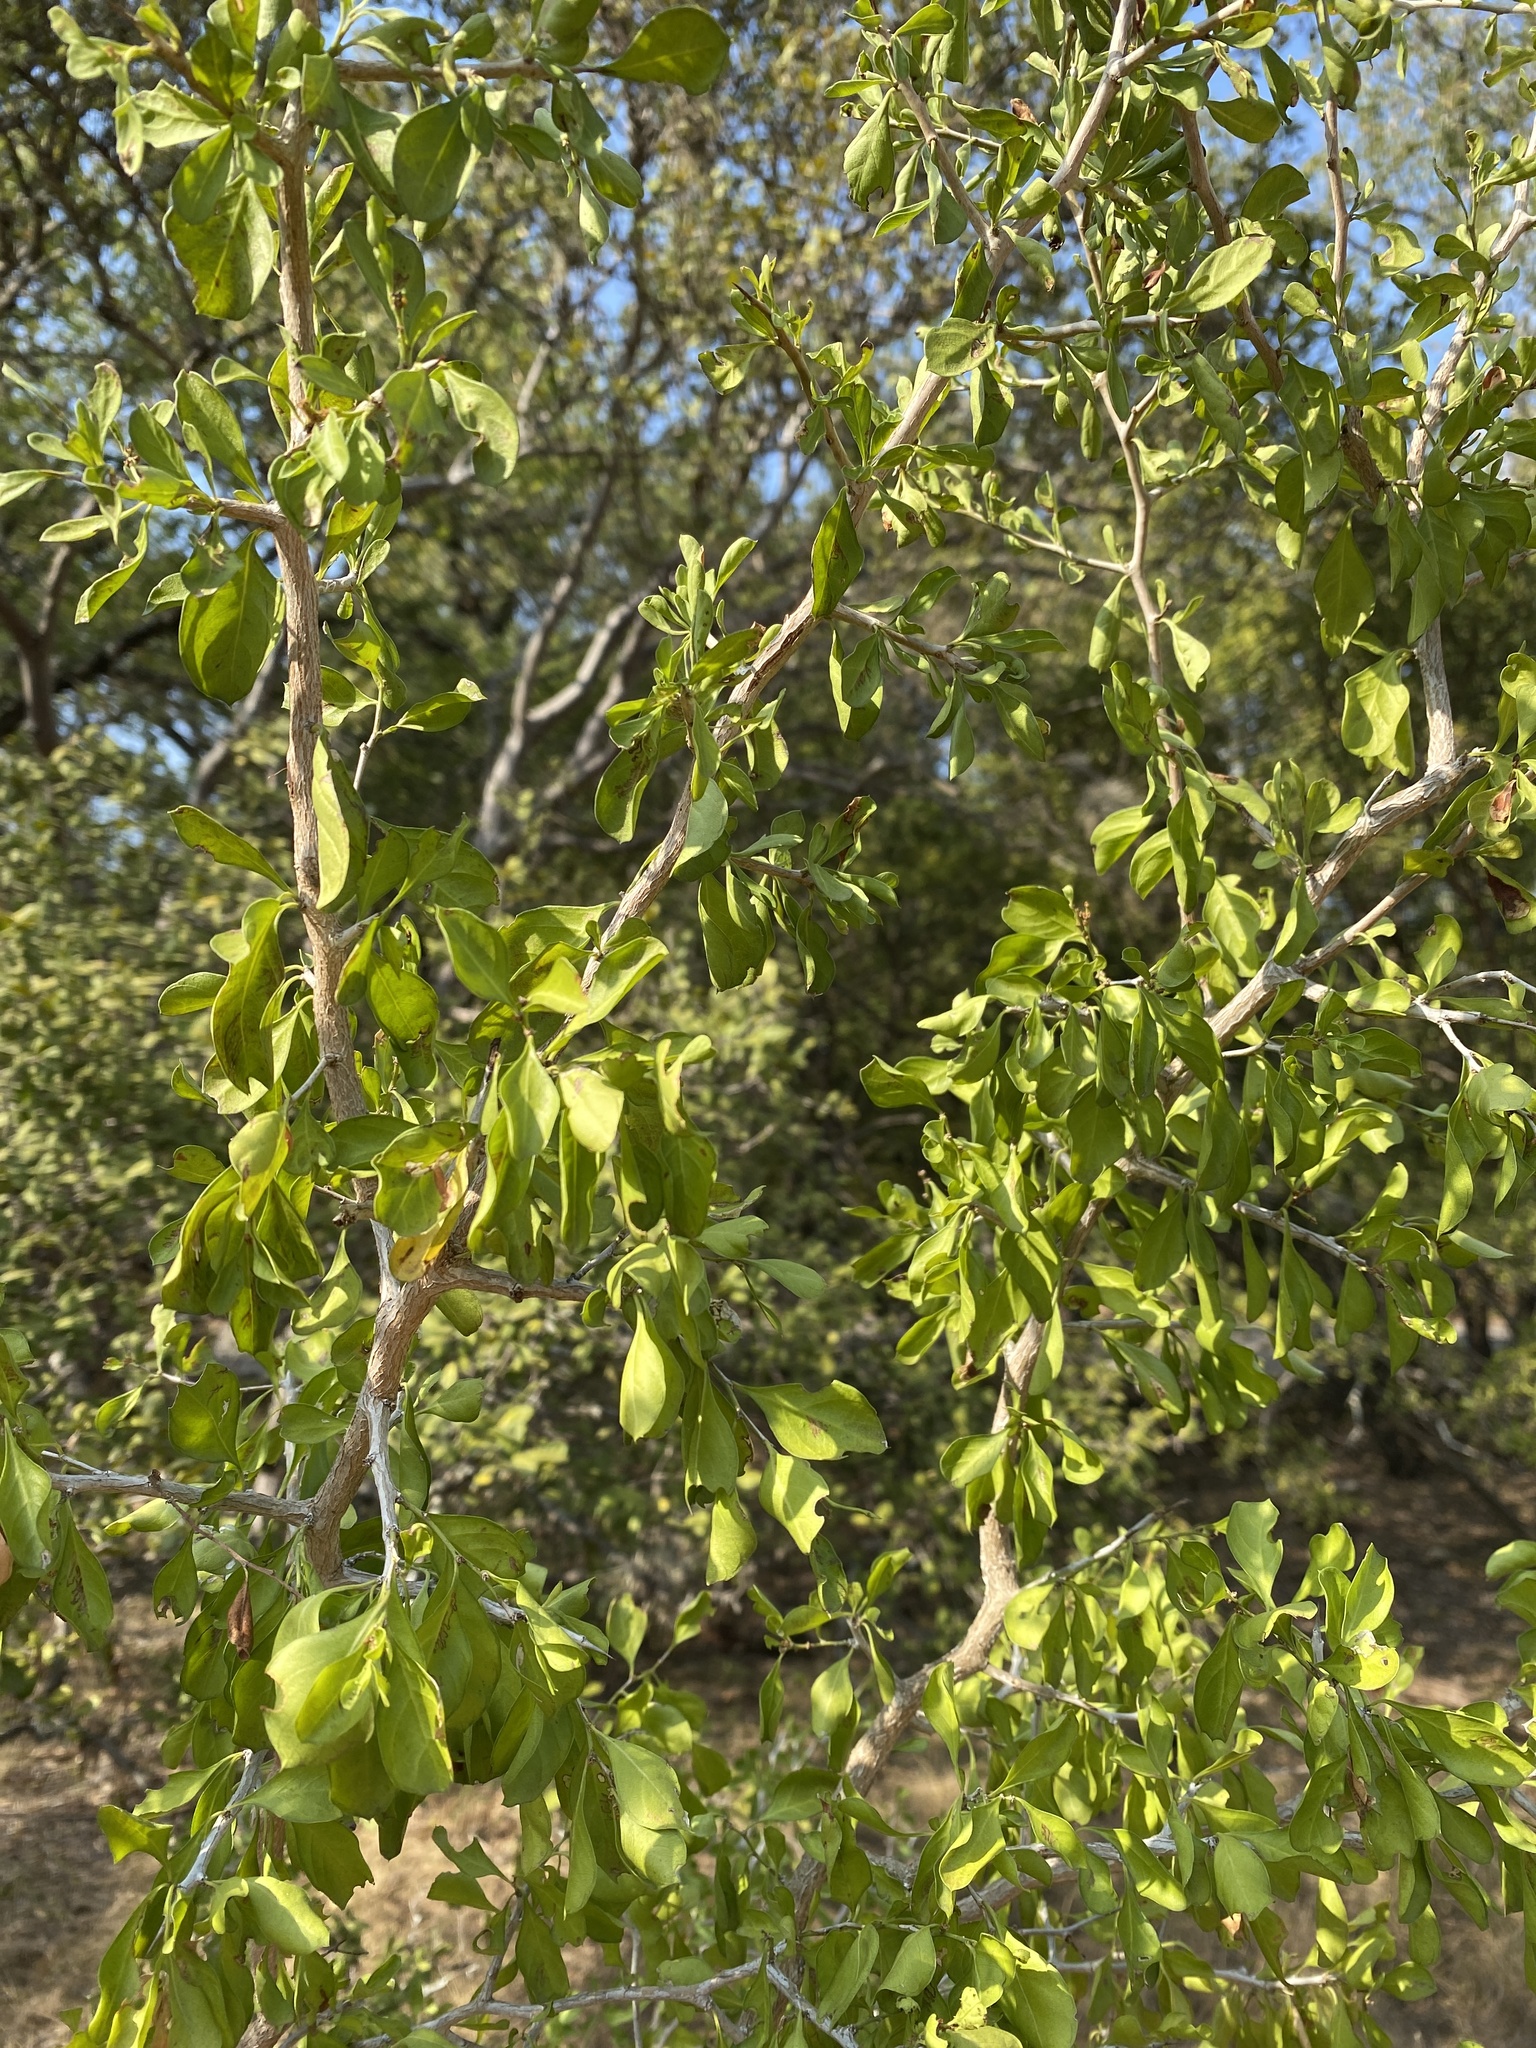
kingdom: Plantae
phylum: Tracheophyta
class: Magnoliopsida
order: Rosales
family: Rhamnaceae
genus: Condalia
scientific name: Condalia hookeri
